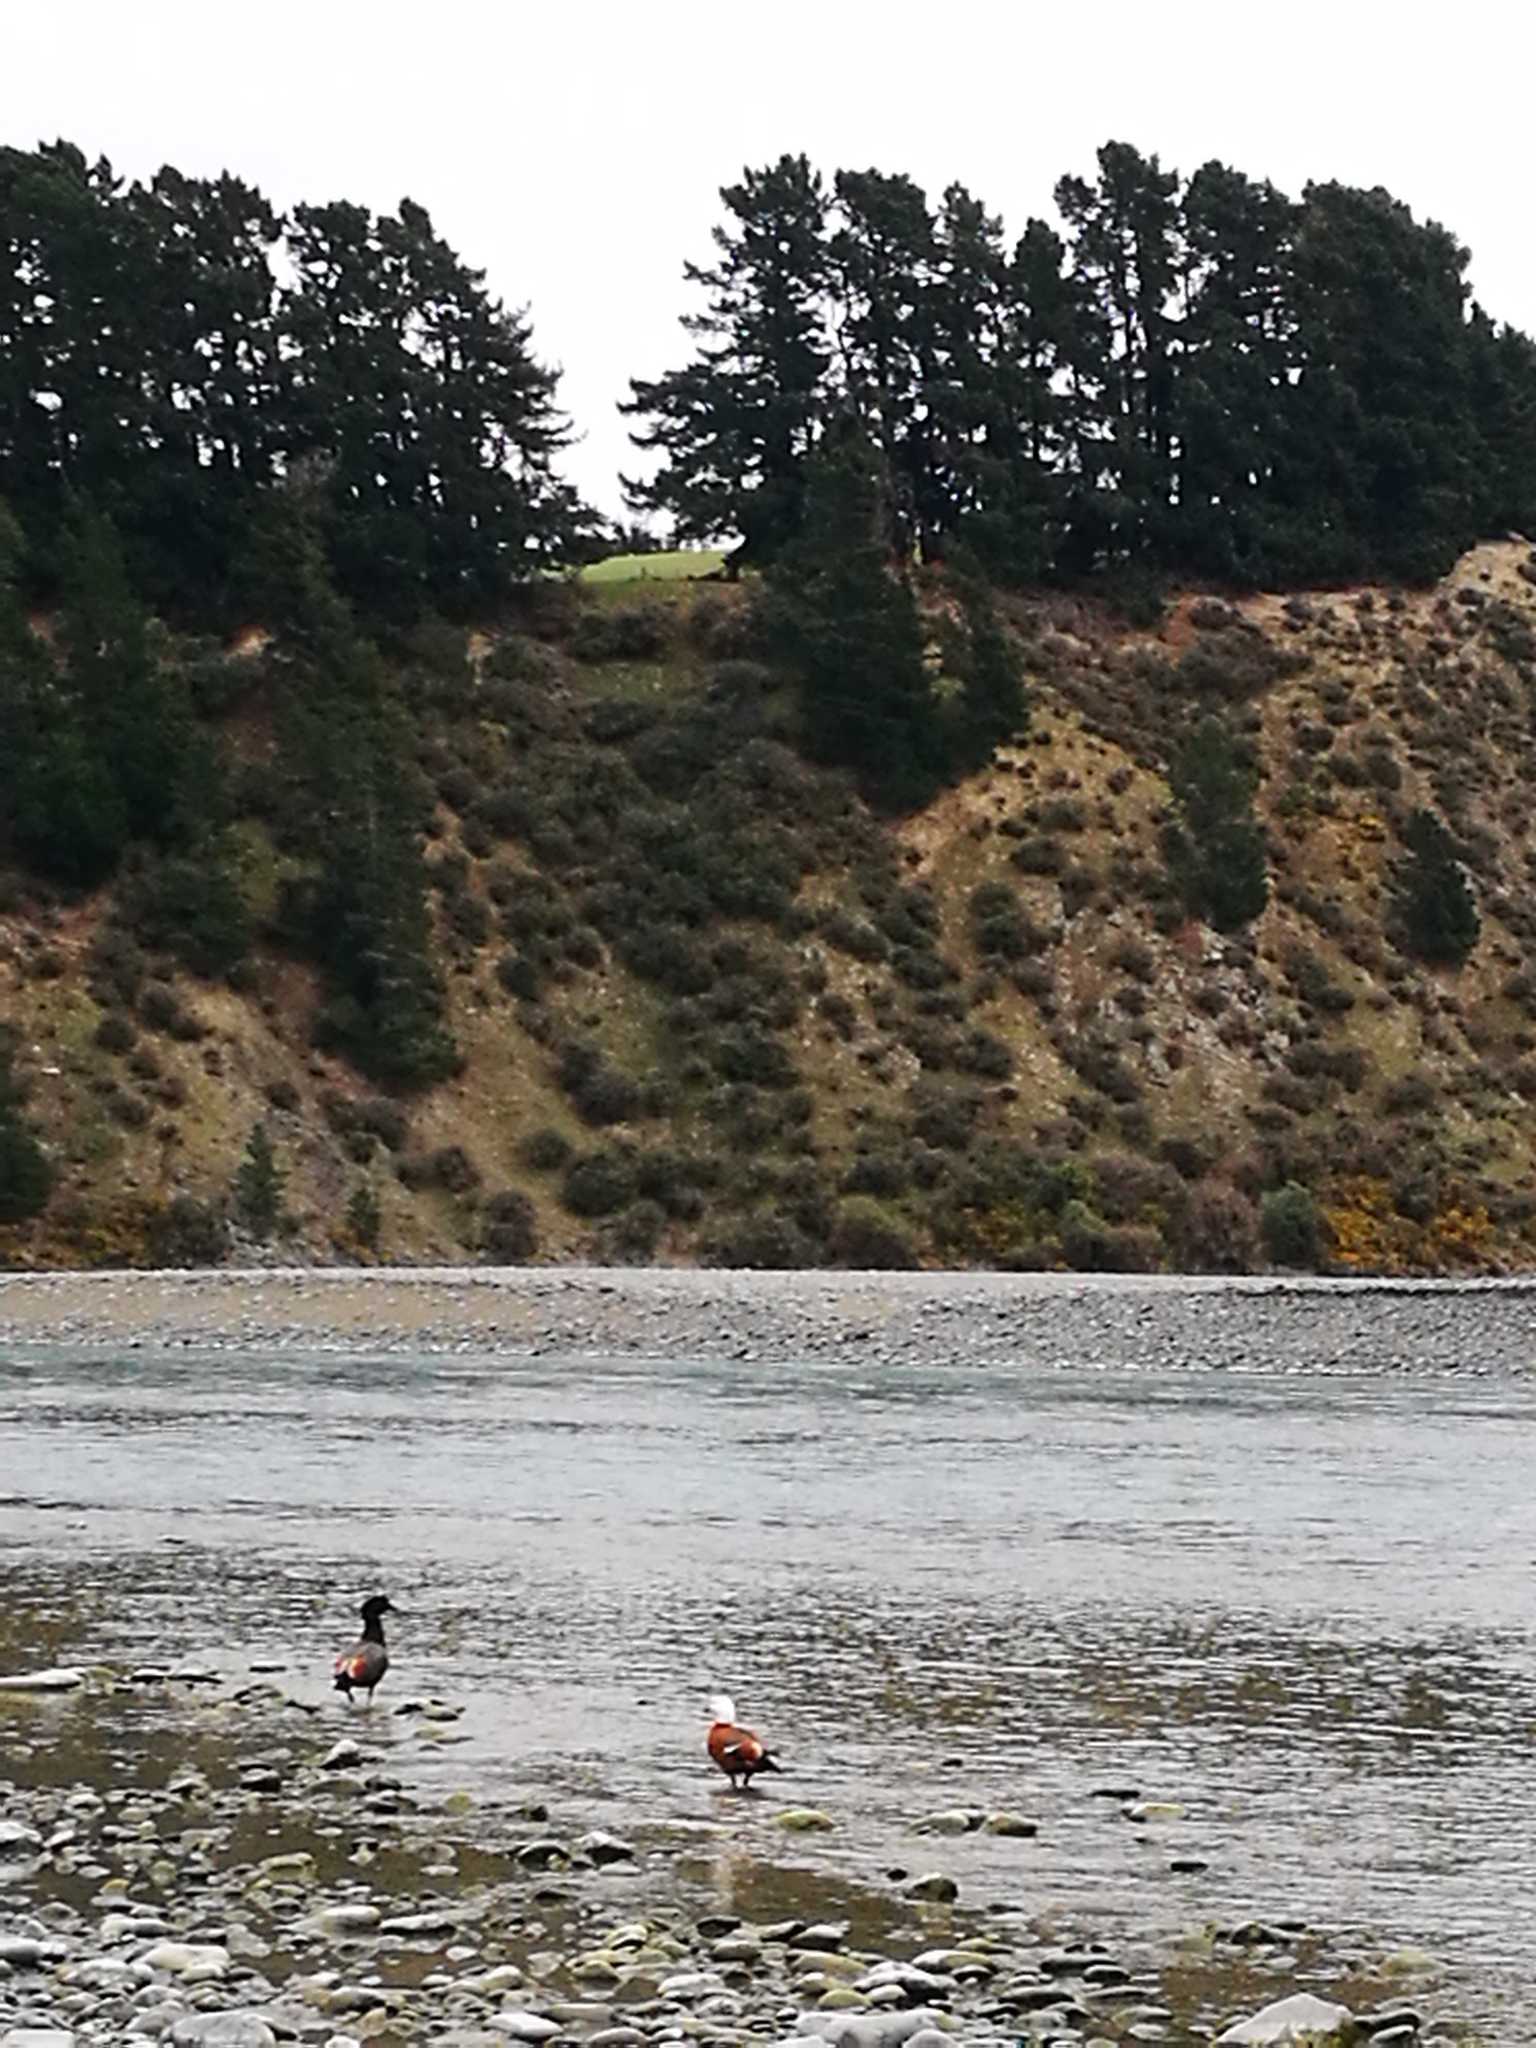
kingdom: Animalia
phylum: Chordata
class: Aves
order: Anseriformes
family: Anatidae
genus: Tadorna
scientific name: Tadorna variegata
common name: Paradise shelduck
